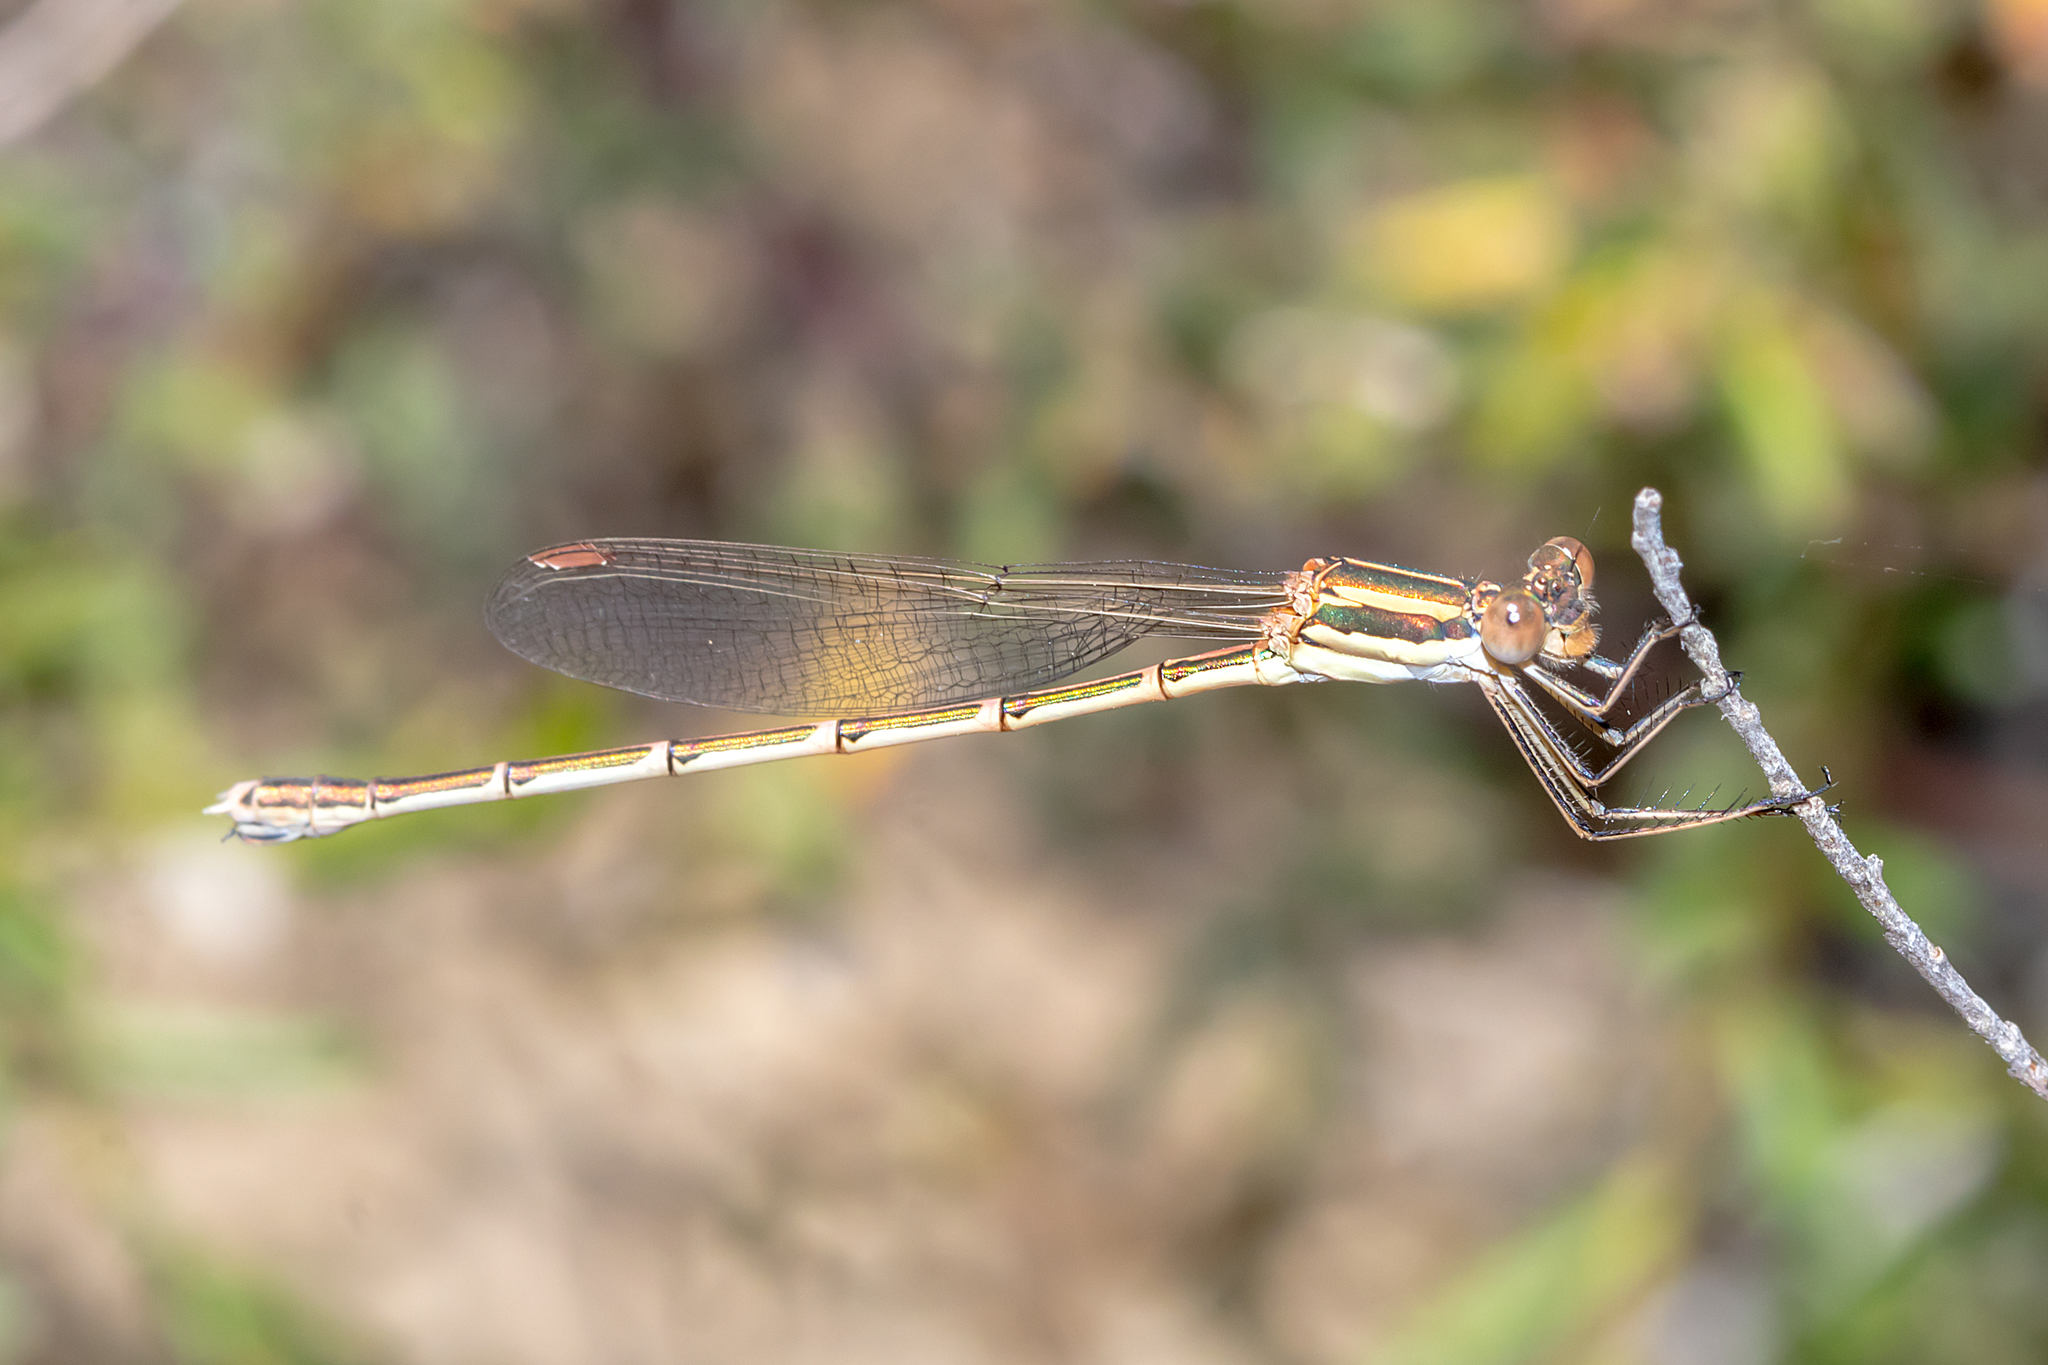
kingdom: Animalia
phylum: Arthropoda
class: Insecta
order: Odonata
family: Lestidae
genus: Austrolestes
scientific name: Austrolestes analis
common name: Slender ringtail
